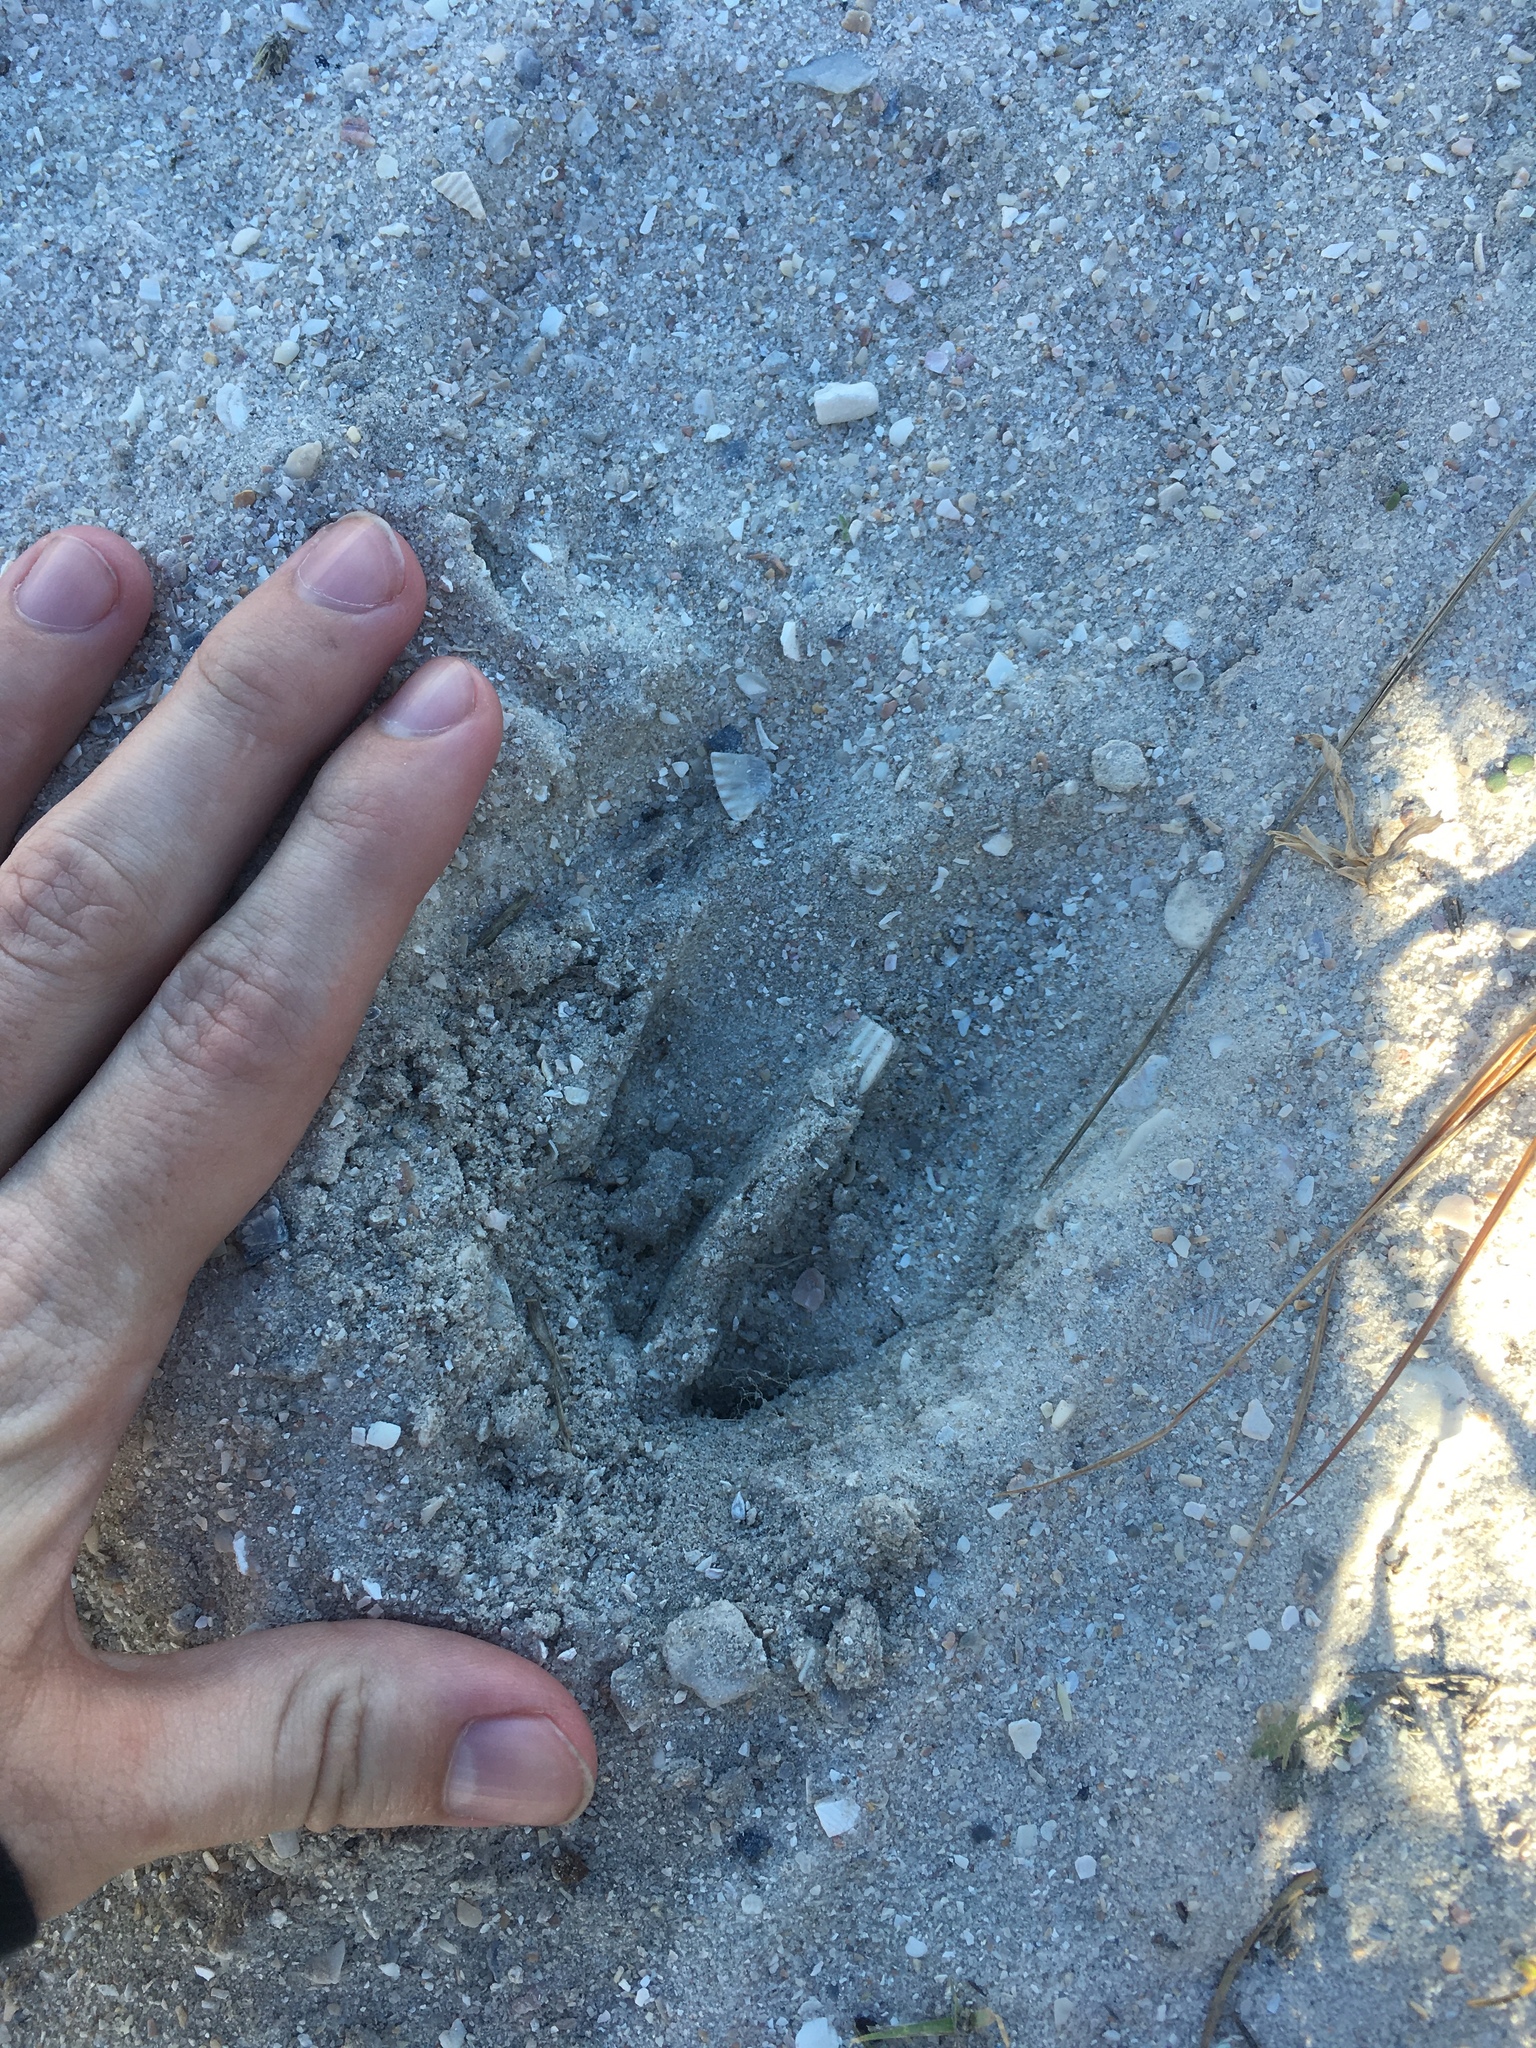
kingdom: Animalia
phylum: Chordata
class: Mammalia
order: Artiodactyla
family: Cervidae
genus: Odocoileus
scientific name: Odocoileus virginianus
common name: White-tailed deer
